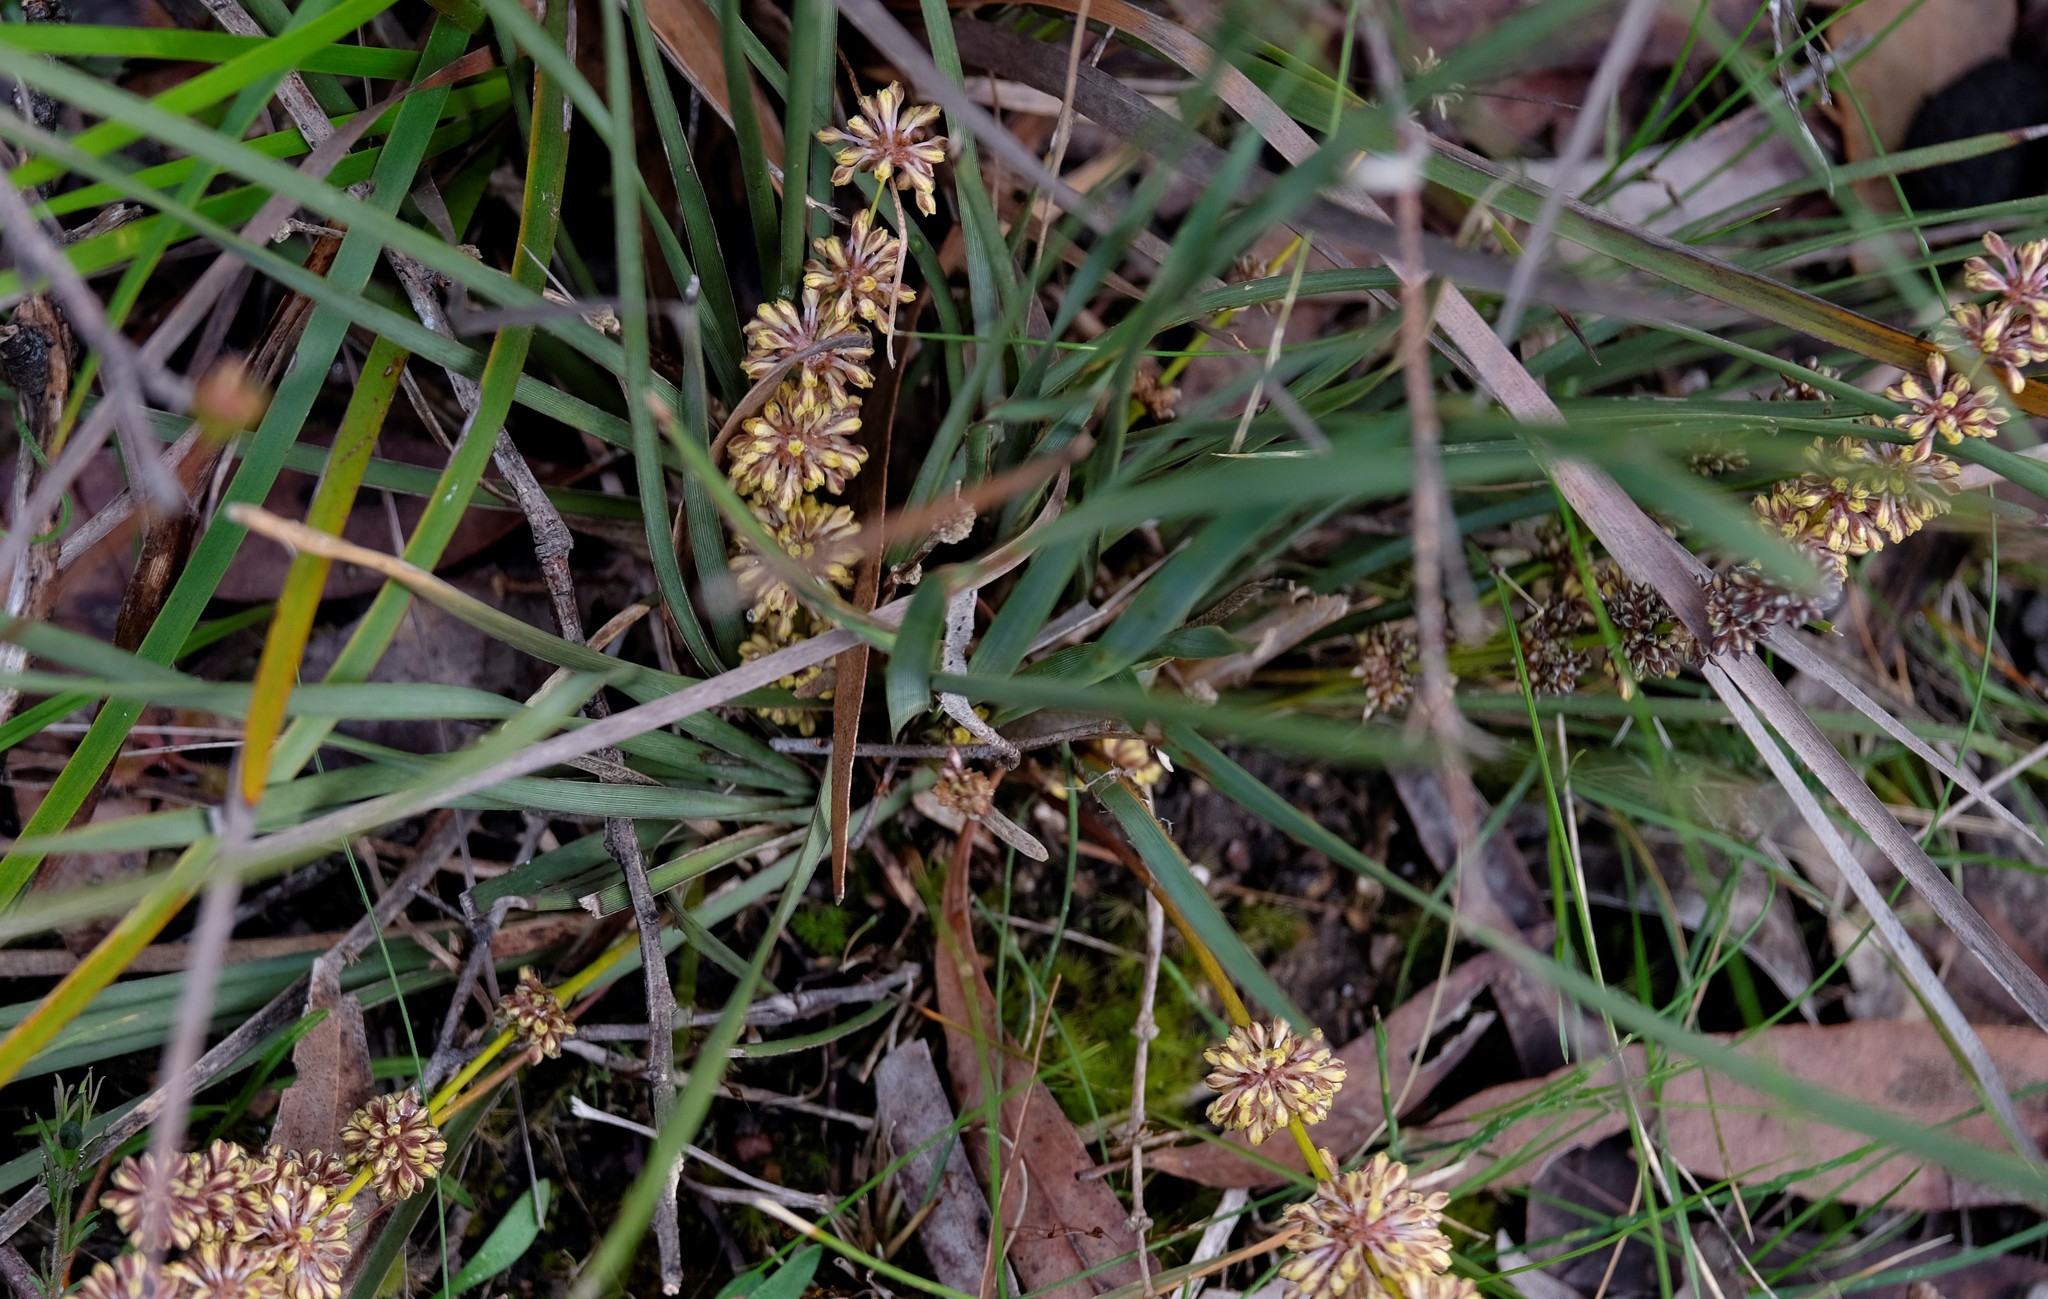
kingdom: Plantae
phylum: Tracheophyta
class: Liliopsida
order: Asparagales
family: Asparagaceae
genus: Lomandra
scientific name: Lomandra multiflora
